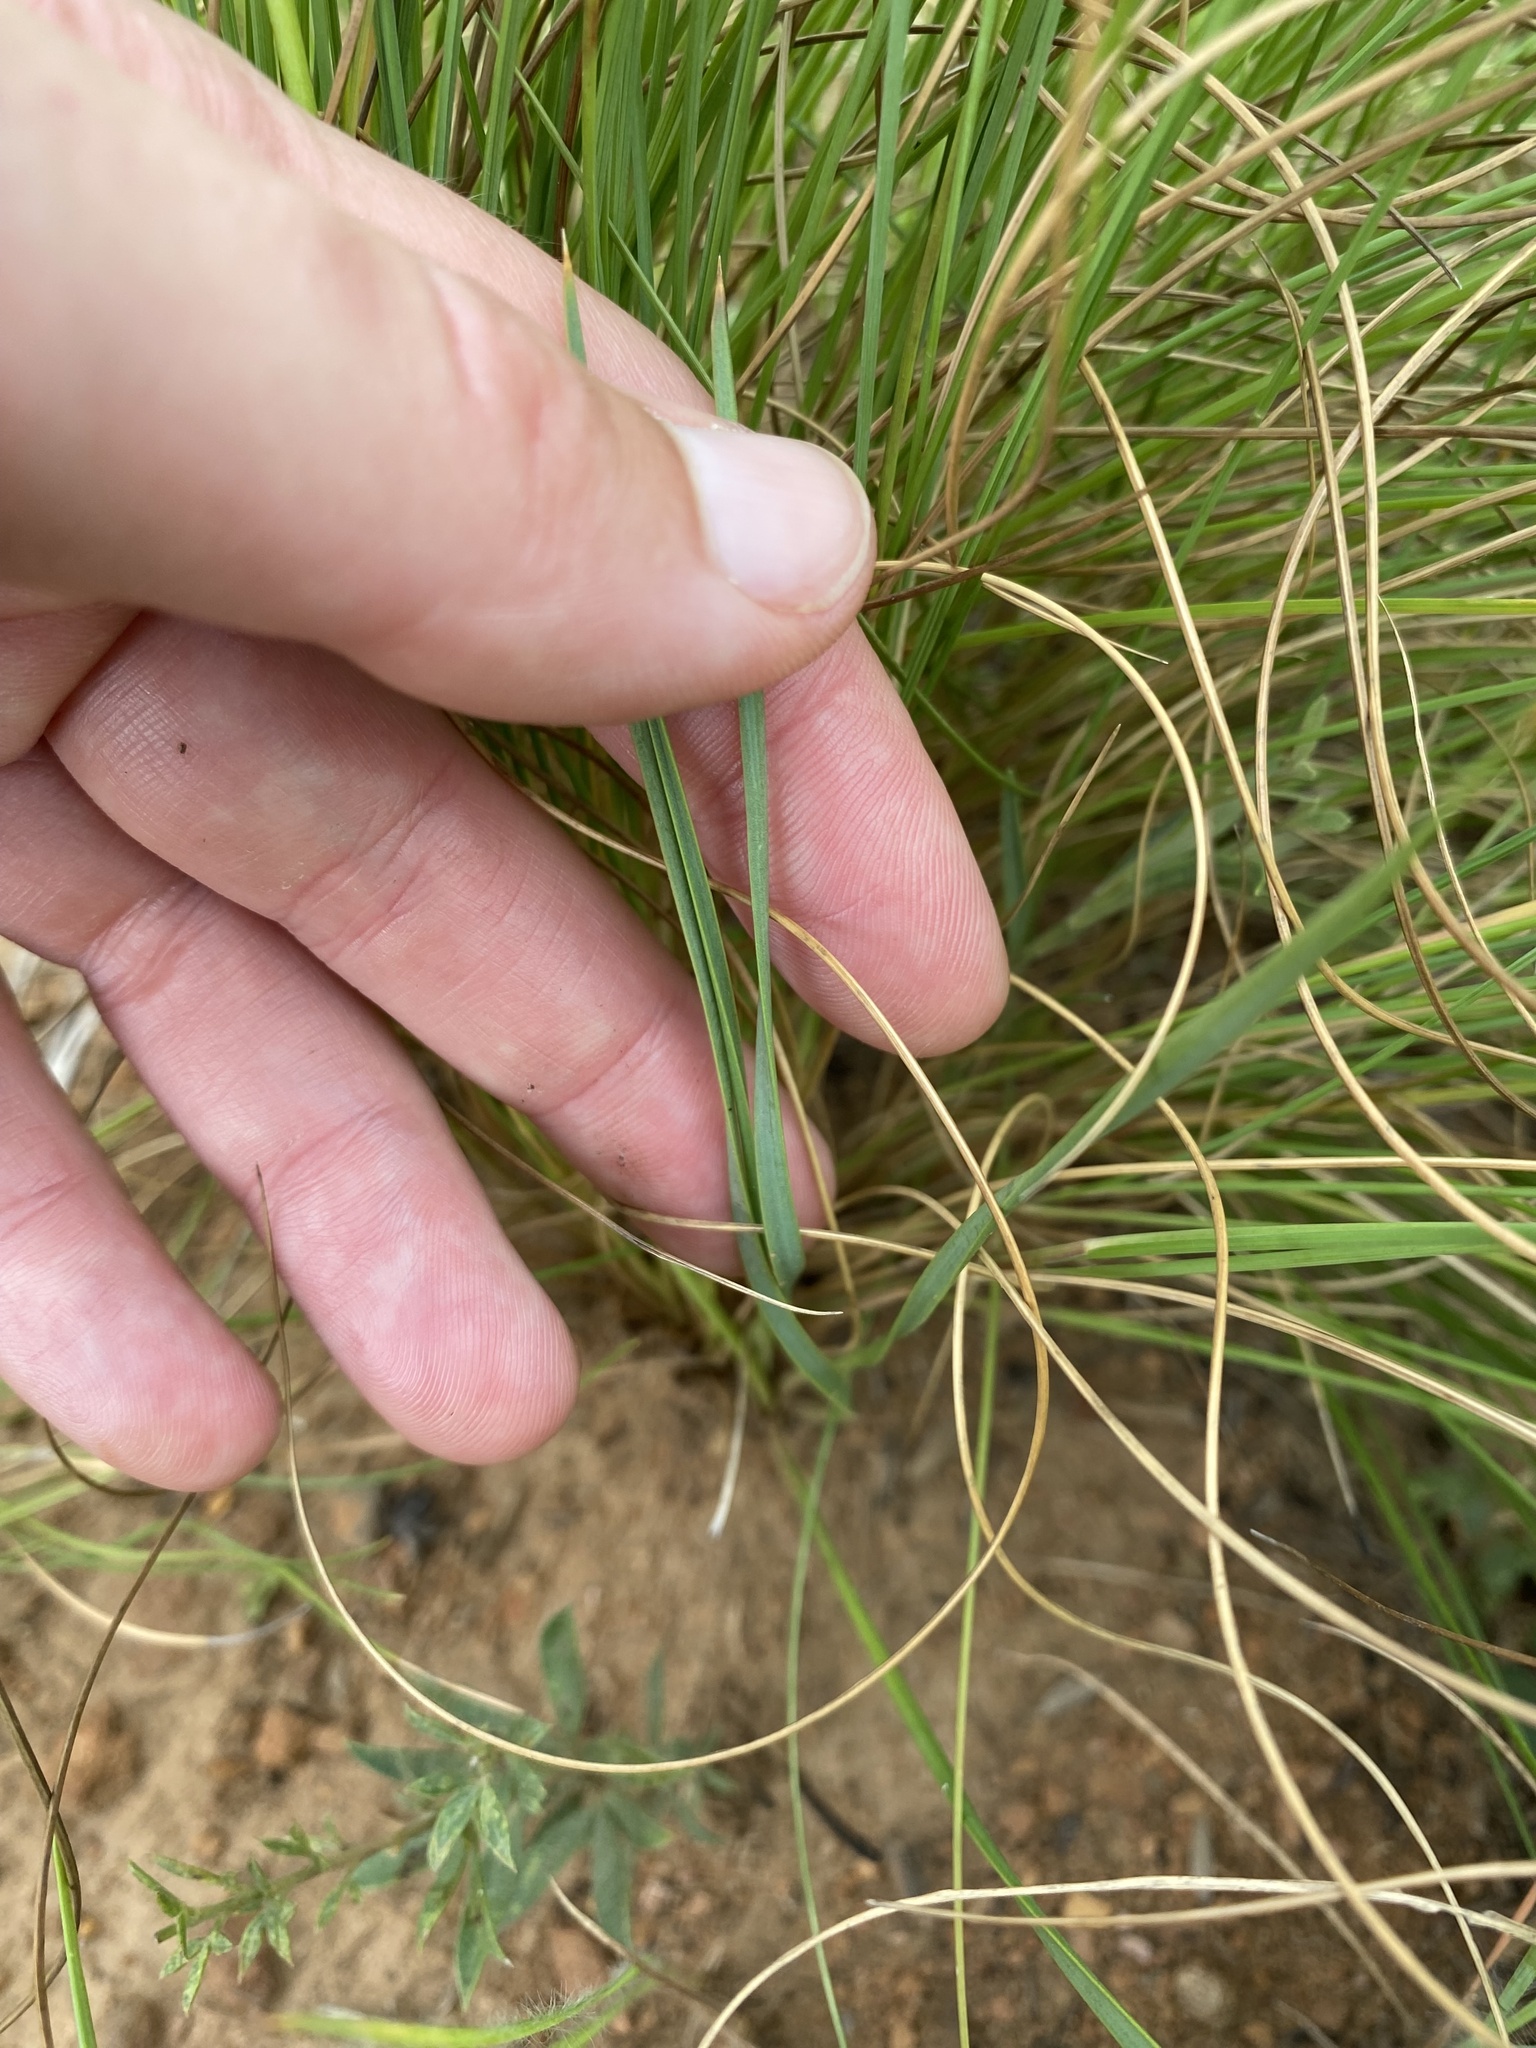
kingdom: Plantae
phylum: Tracheophyta
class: Liliopsida
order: Asparagales
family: Asphodelaceae
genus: Aloe
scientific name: Aloe bergeriana
